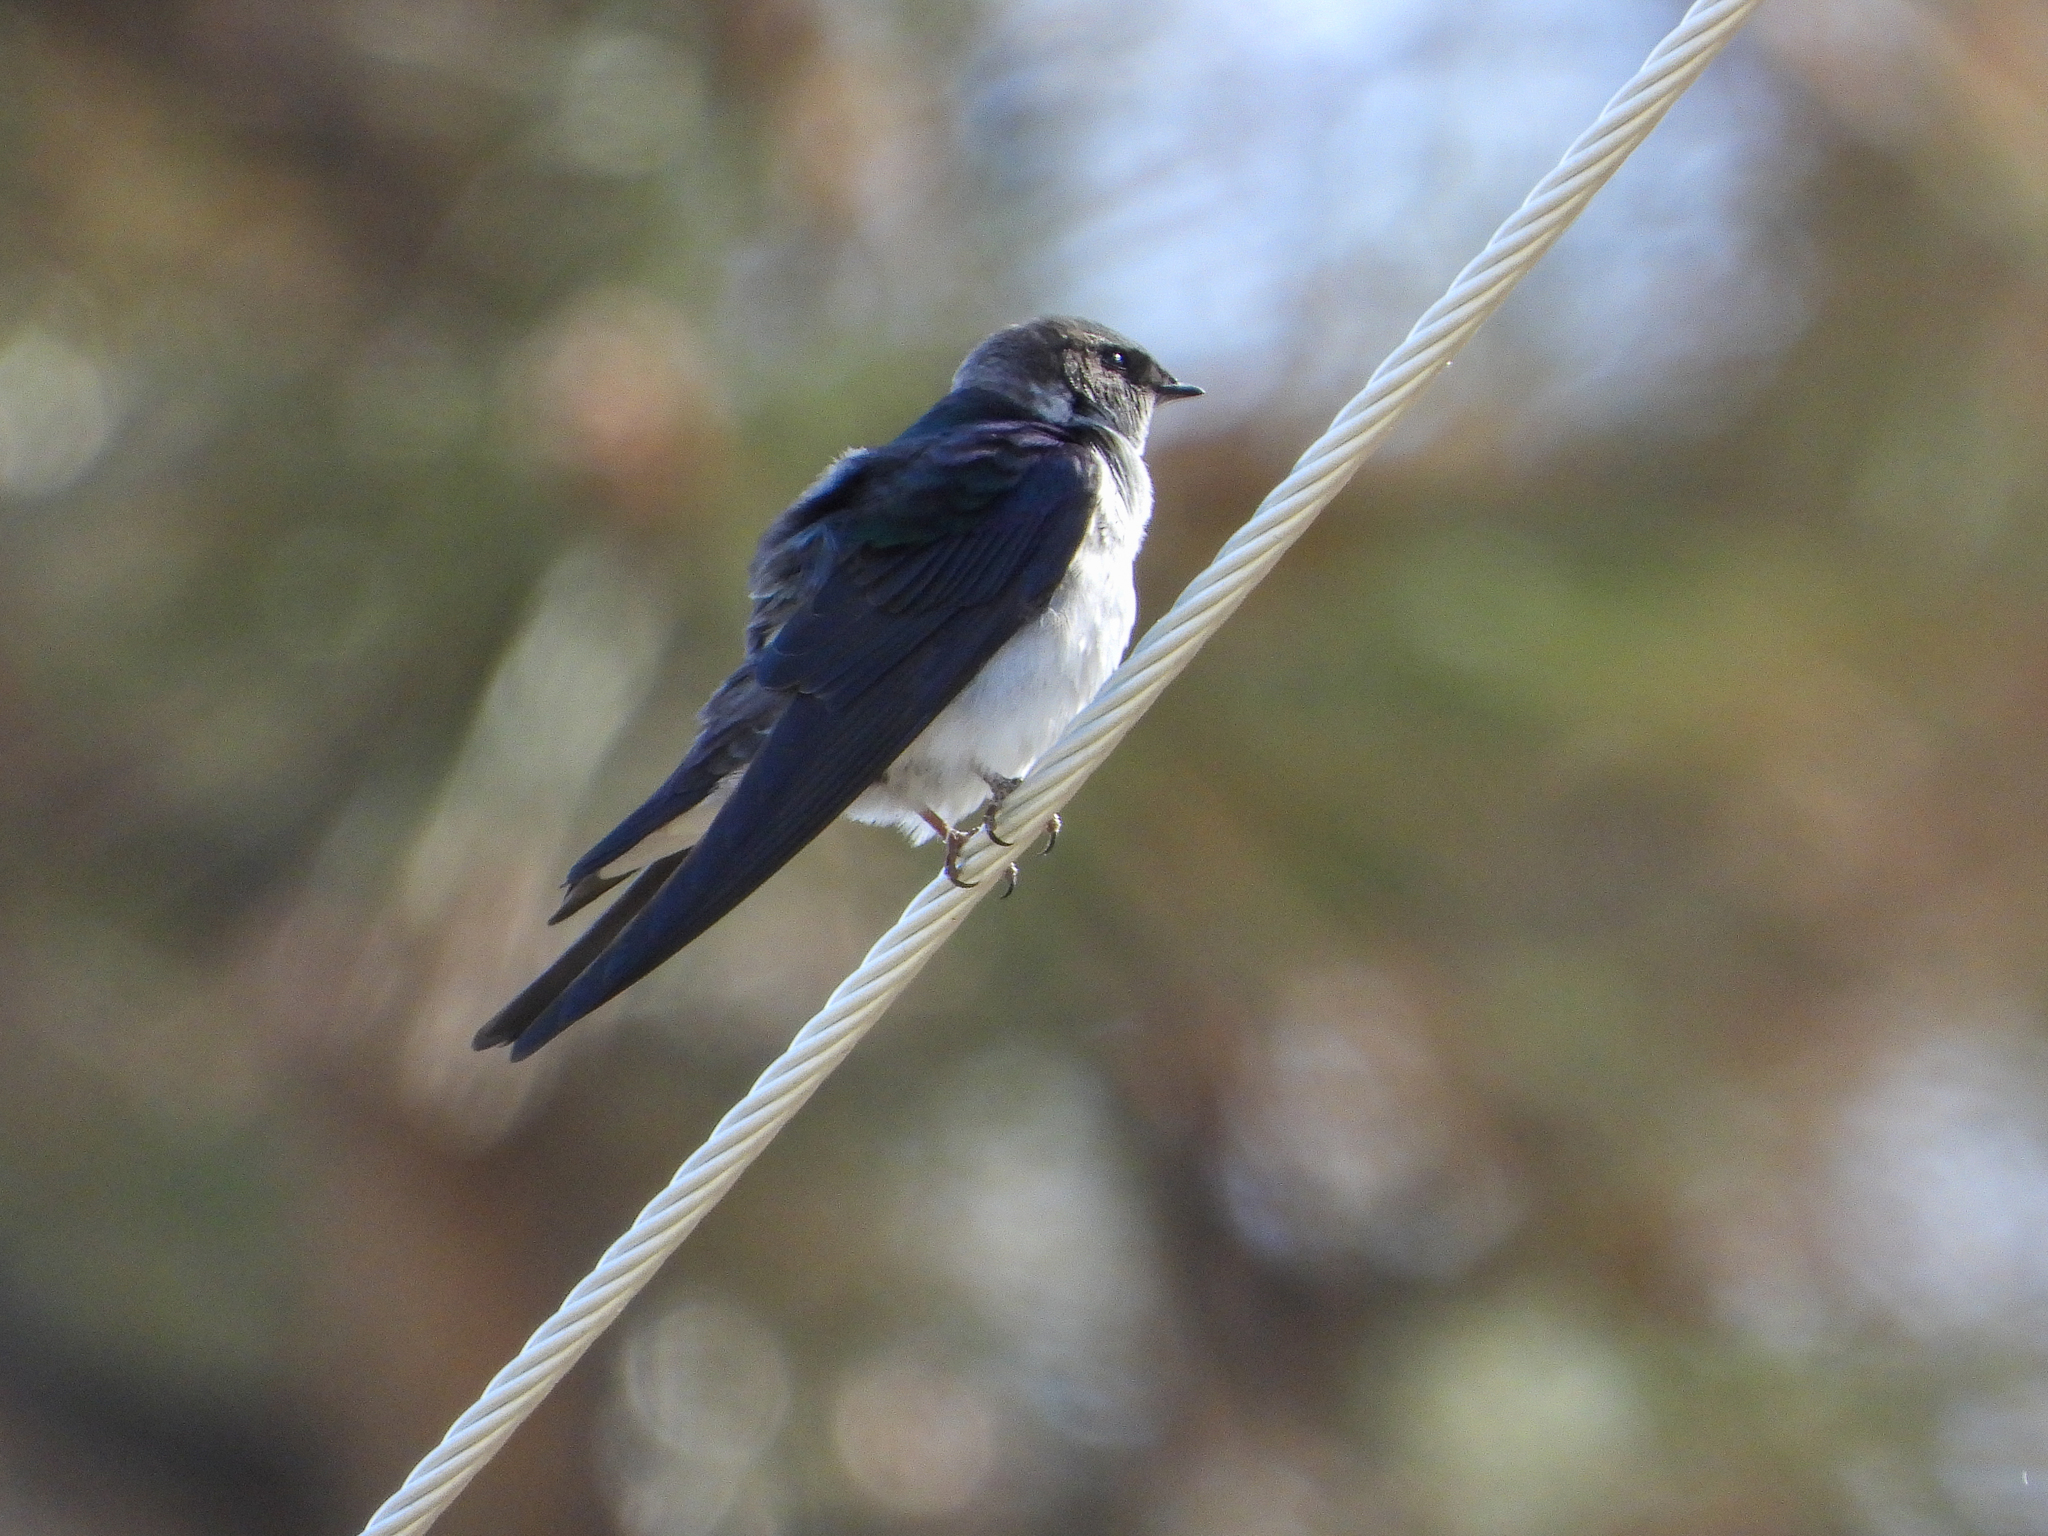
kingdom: Animalia
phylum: Chordata
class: Aves
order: Passeriformes
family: Hirundinidae
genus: Tachycineta
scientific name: Tachycineta thalassina
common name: Violet-green swallow
